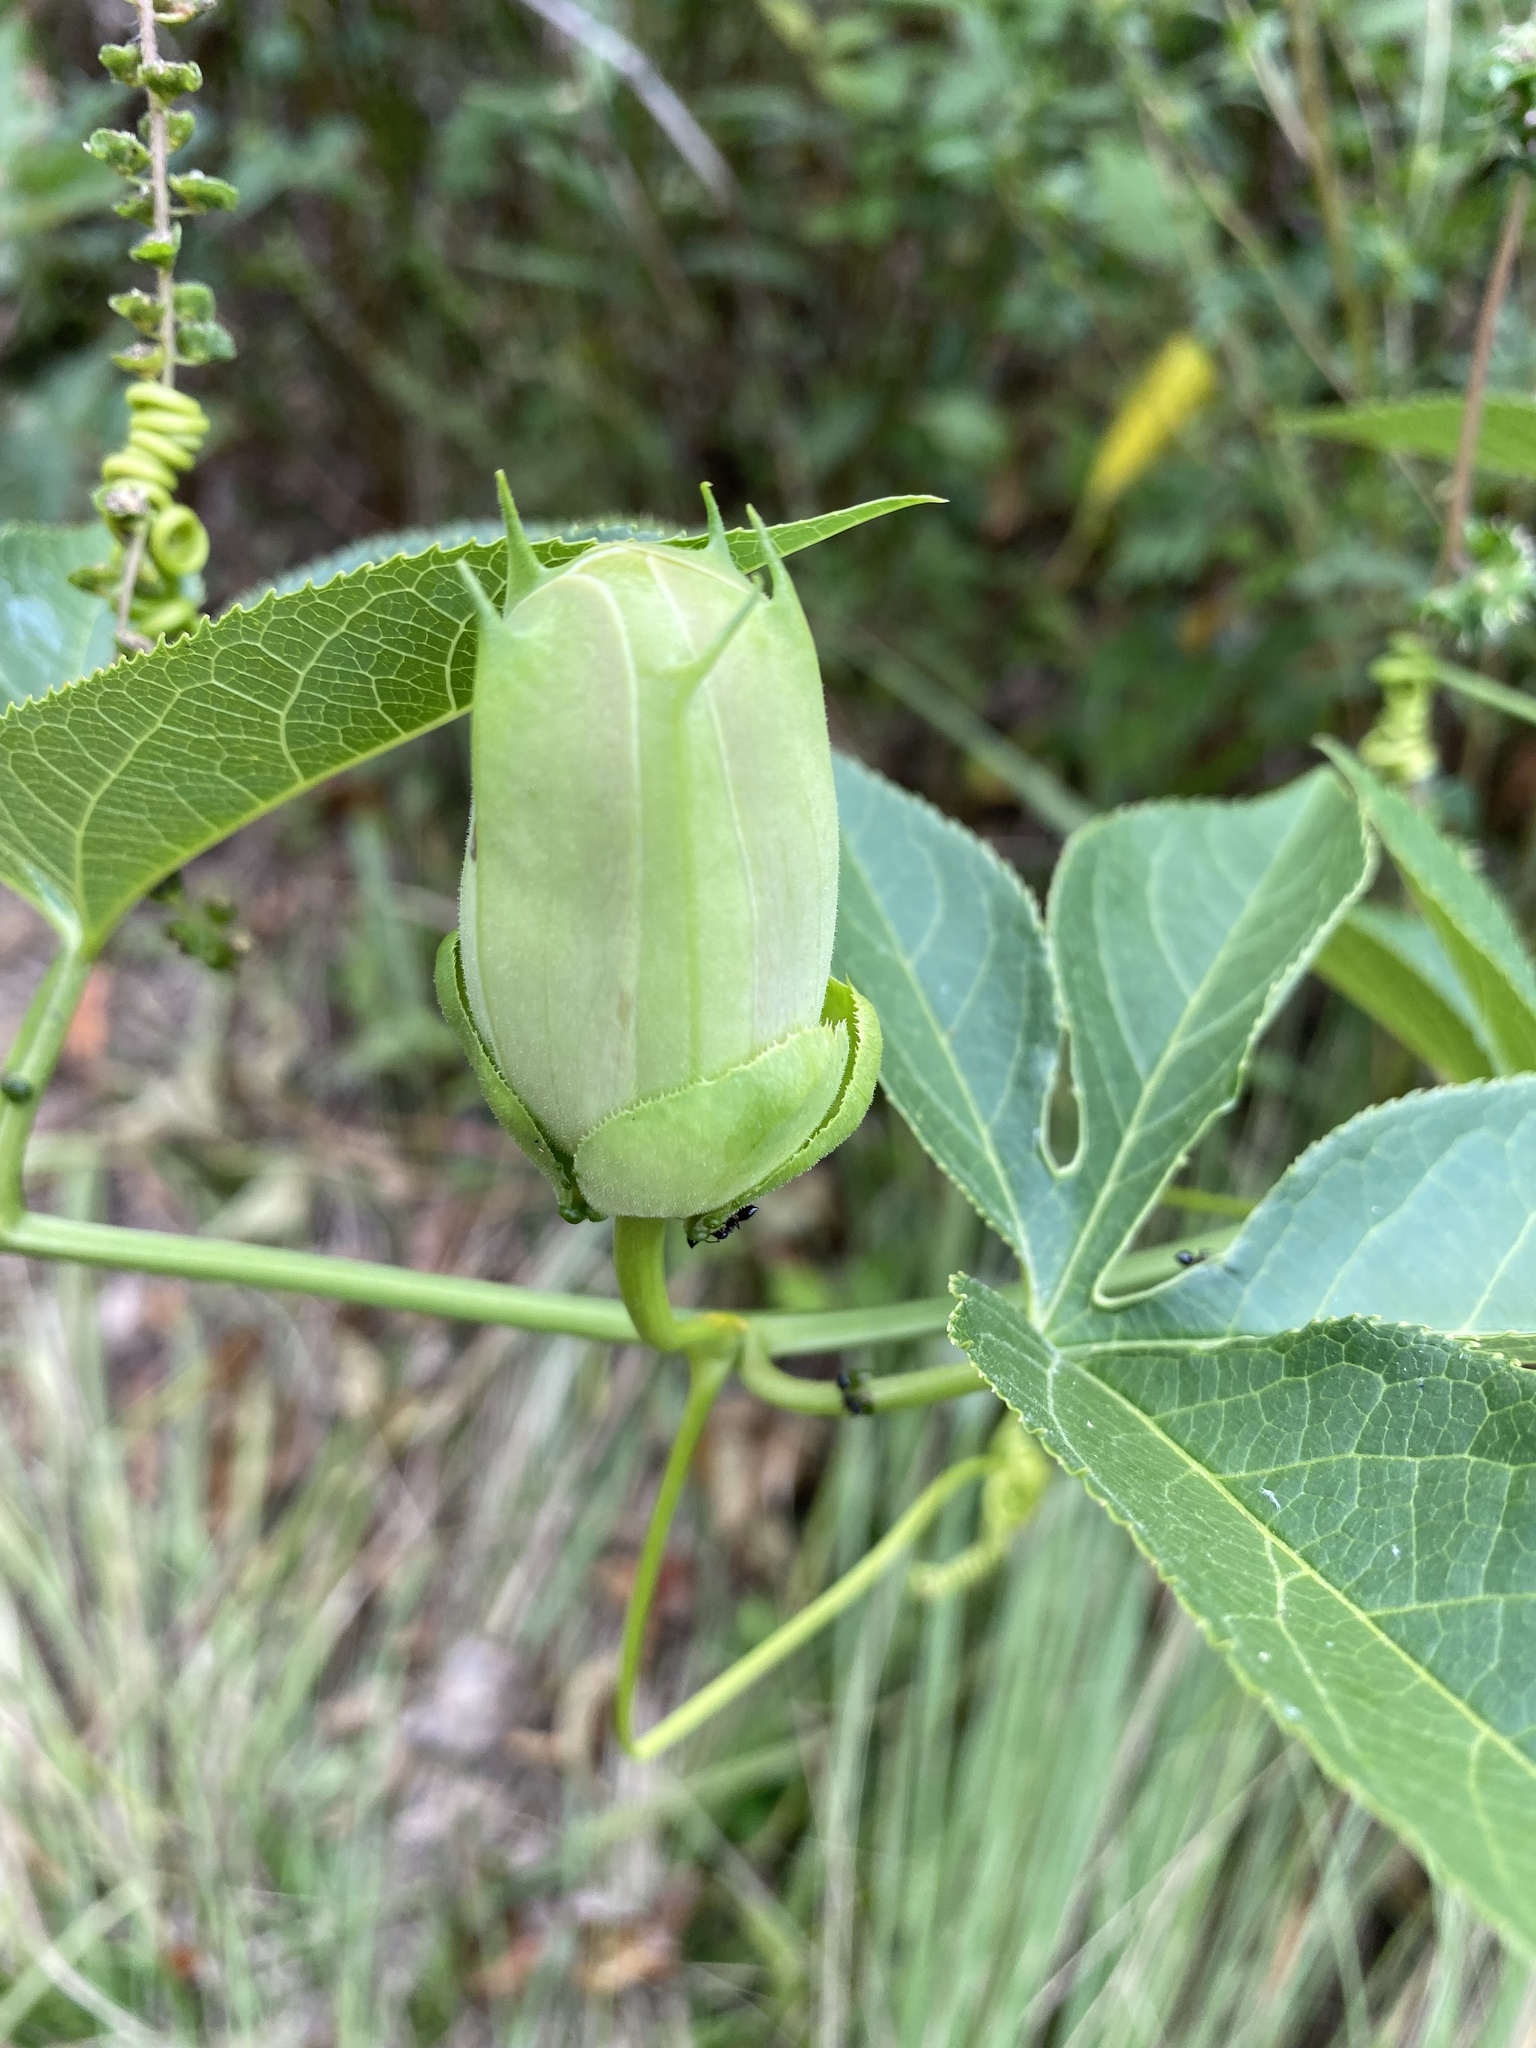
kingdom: Plantae
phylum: Tracheophyta
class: Magnoliopsida
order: Malpighiales
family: Passifloraceae
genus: Passiflora
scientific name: Passiflora
